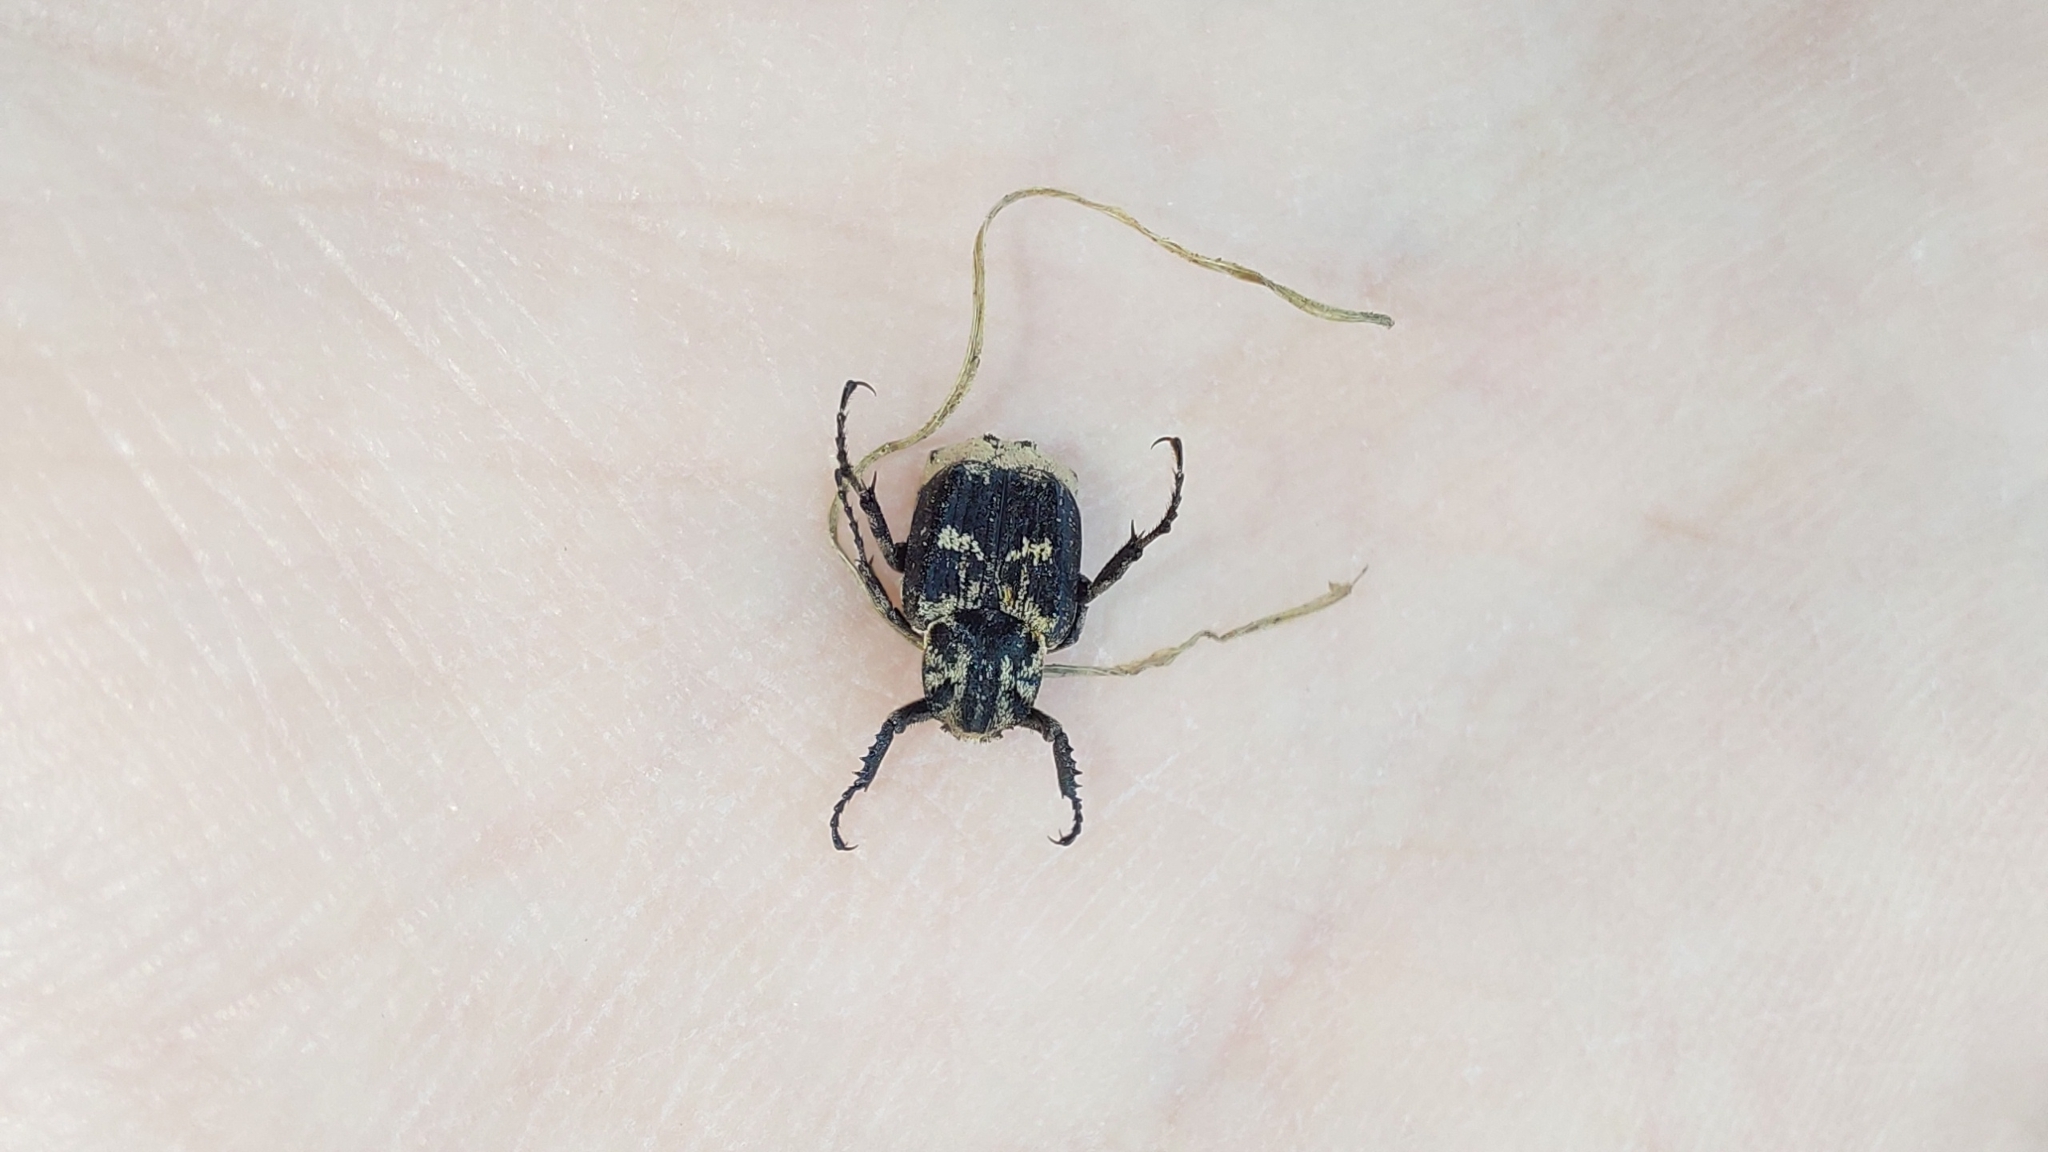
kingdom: Animalia
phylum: Arthropoda
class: Insecta
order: Coleoptera
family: Scarabaeidae
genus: Valgus
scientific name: Valgus hemipterus
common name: Bug flower chafer
